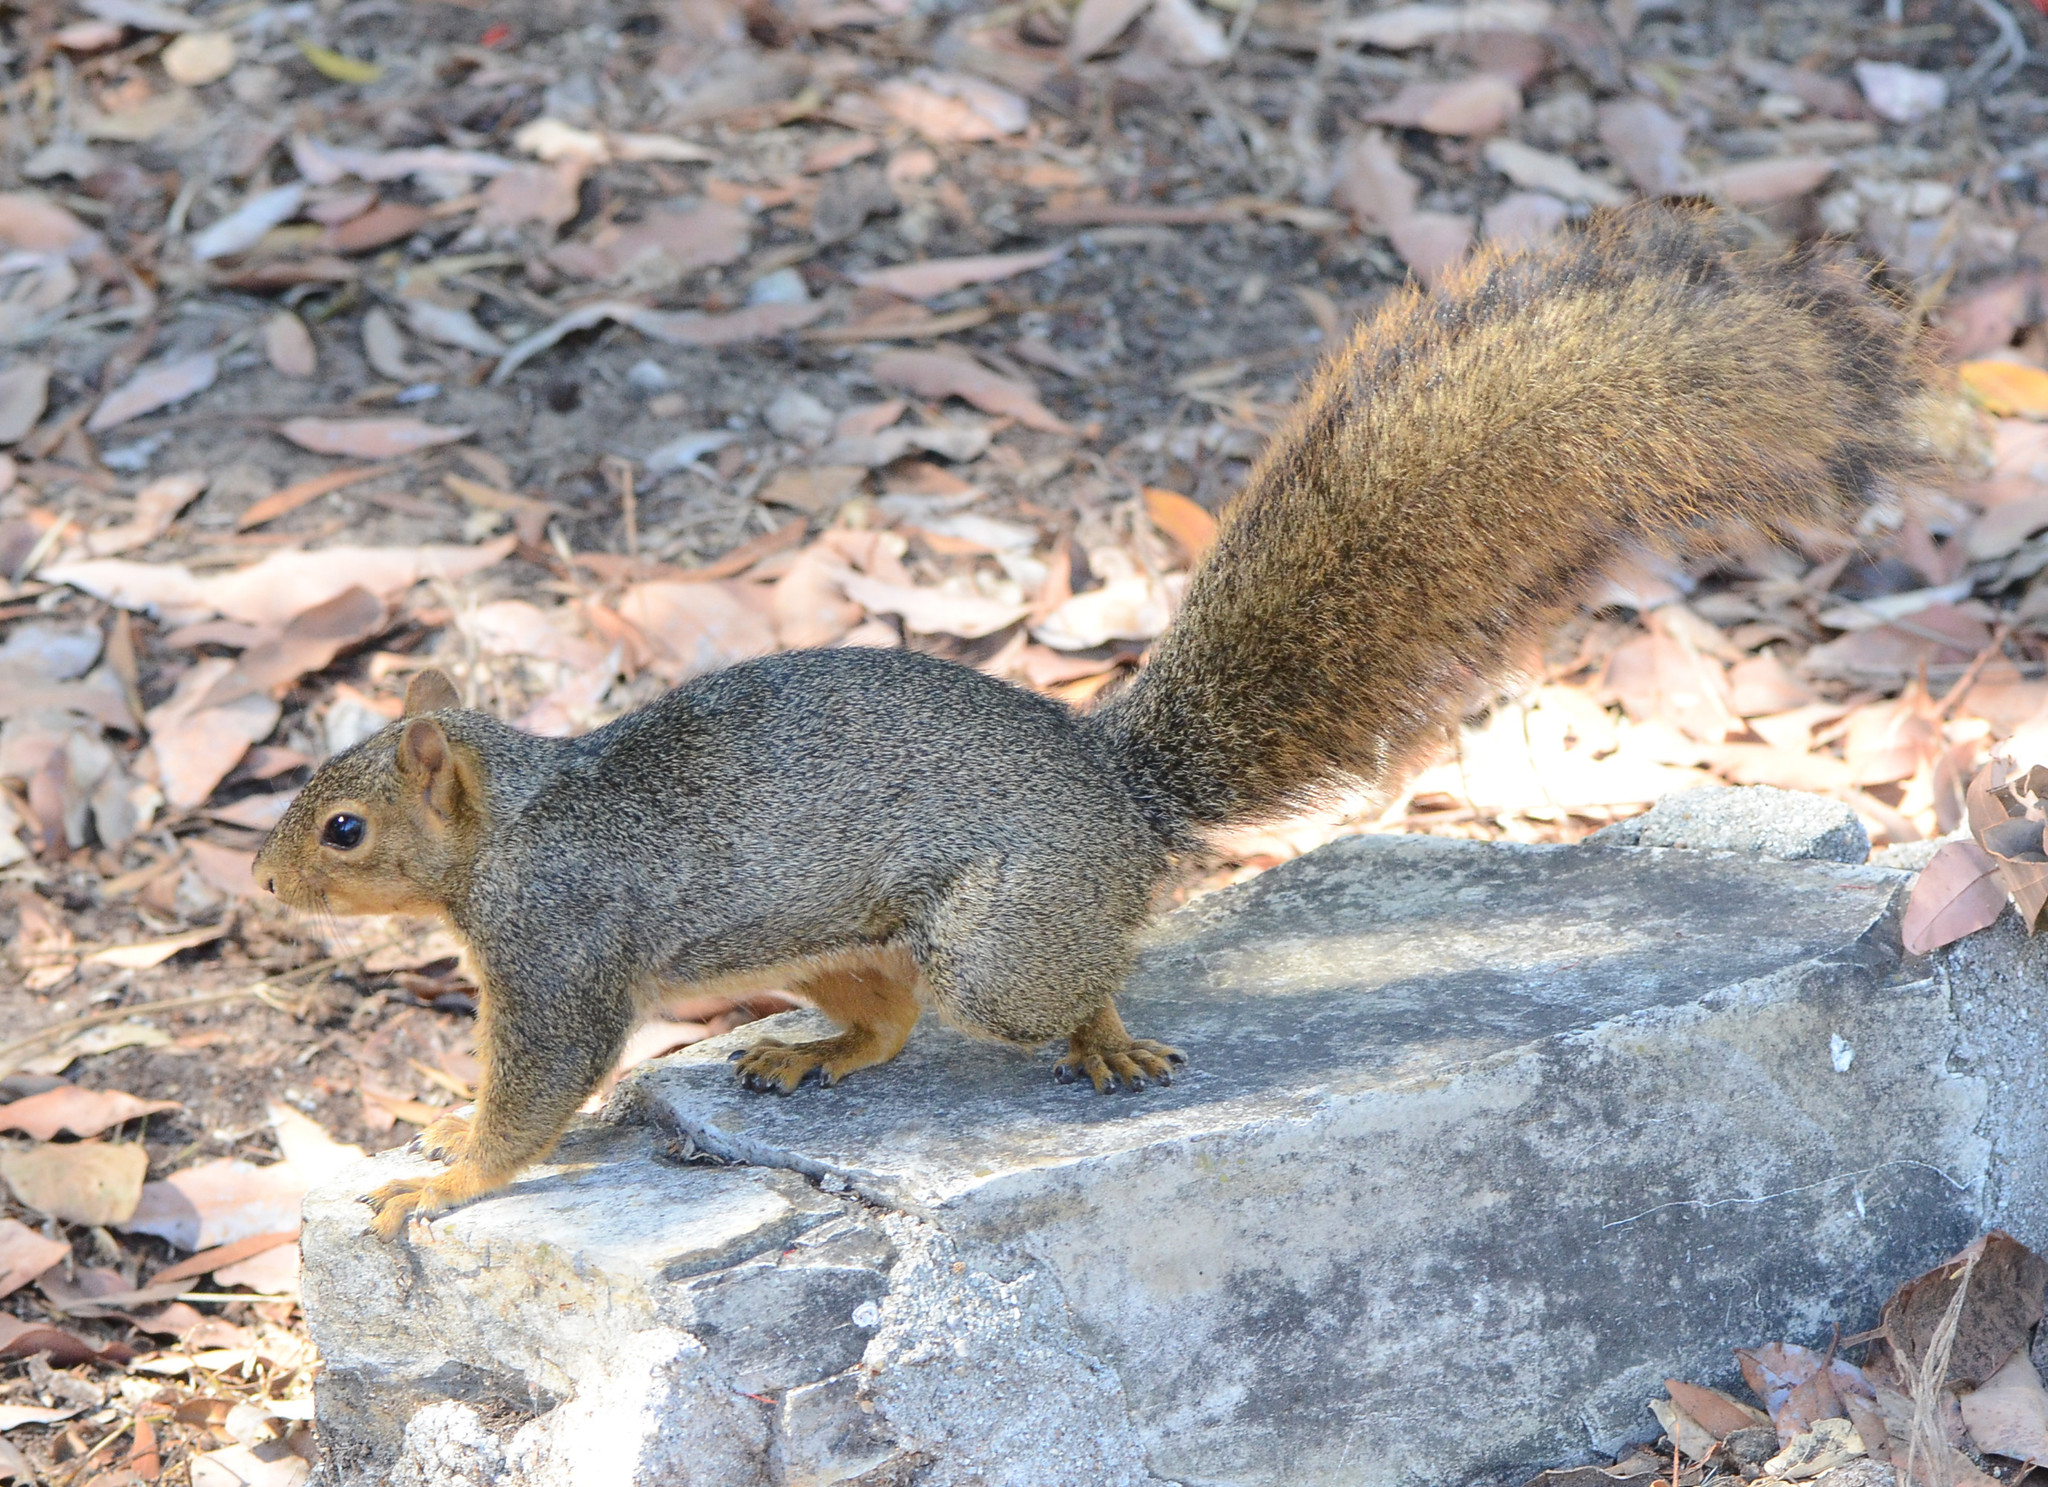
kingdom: Animalia
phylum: Chordata
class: Mammalia
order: Rodentia
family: Sciuridae
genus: Sciurus
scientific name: Sciurus niger
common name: Fox squirrel
